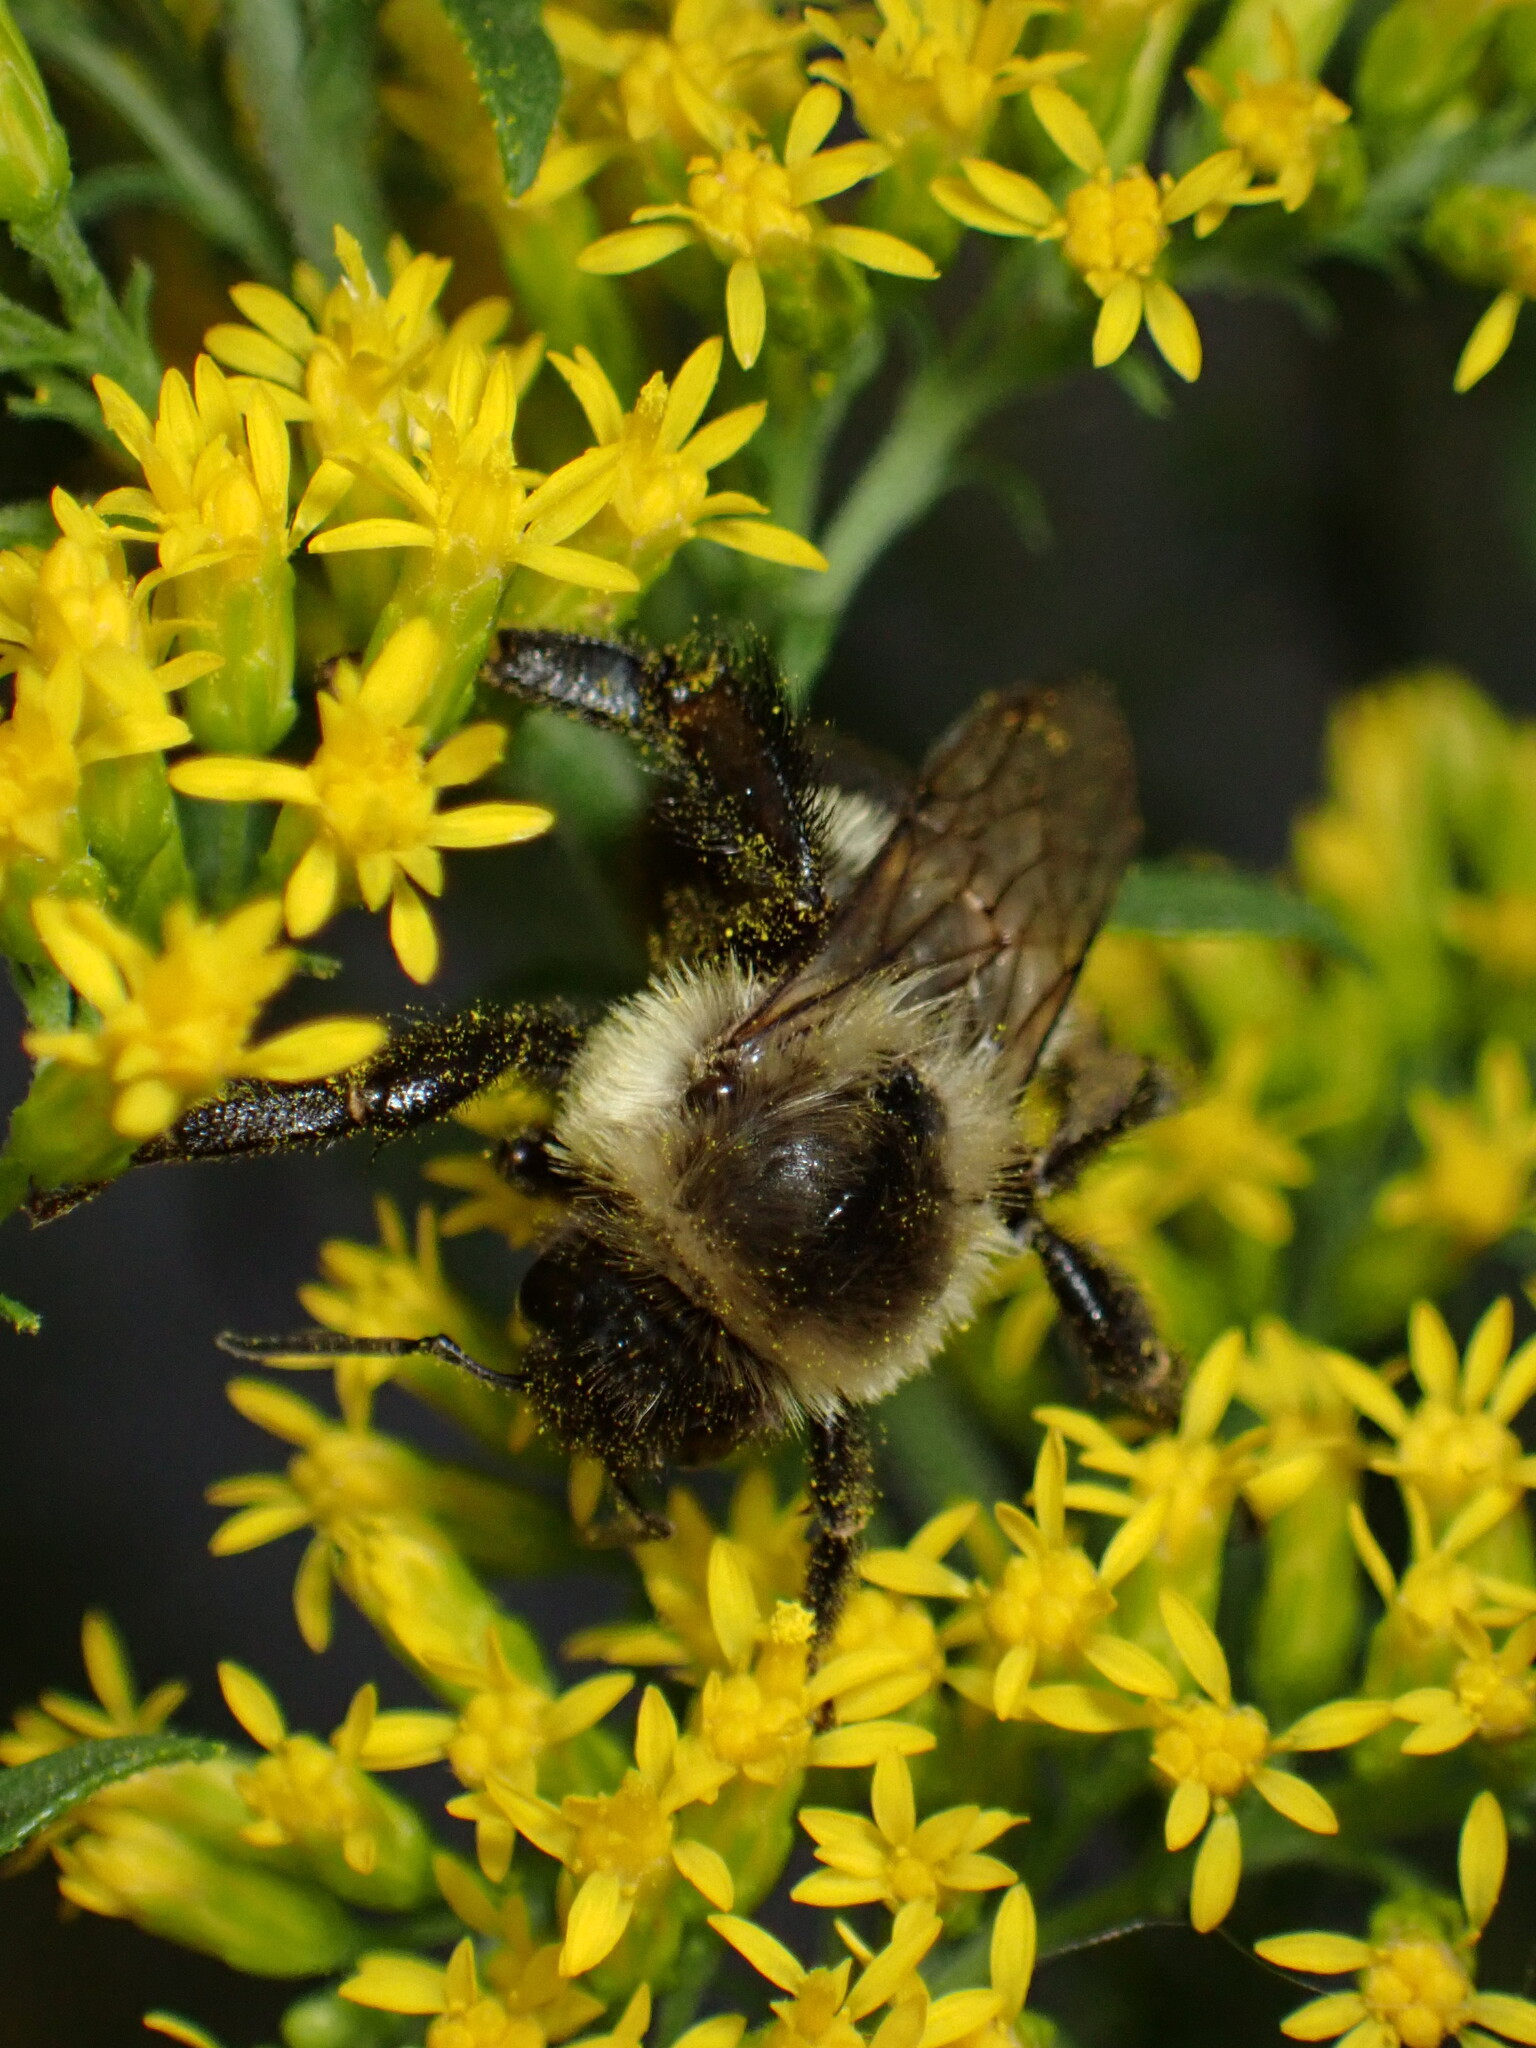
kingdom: Animalia
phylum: Arthropoda
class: Insecta
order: Hymenoptera
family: Apidae
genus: Bombus
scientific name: Bombus impatiens
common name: Common eastern bumble bee
